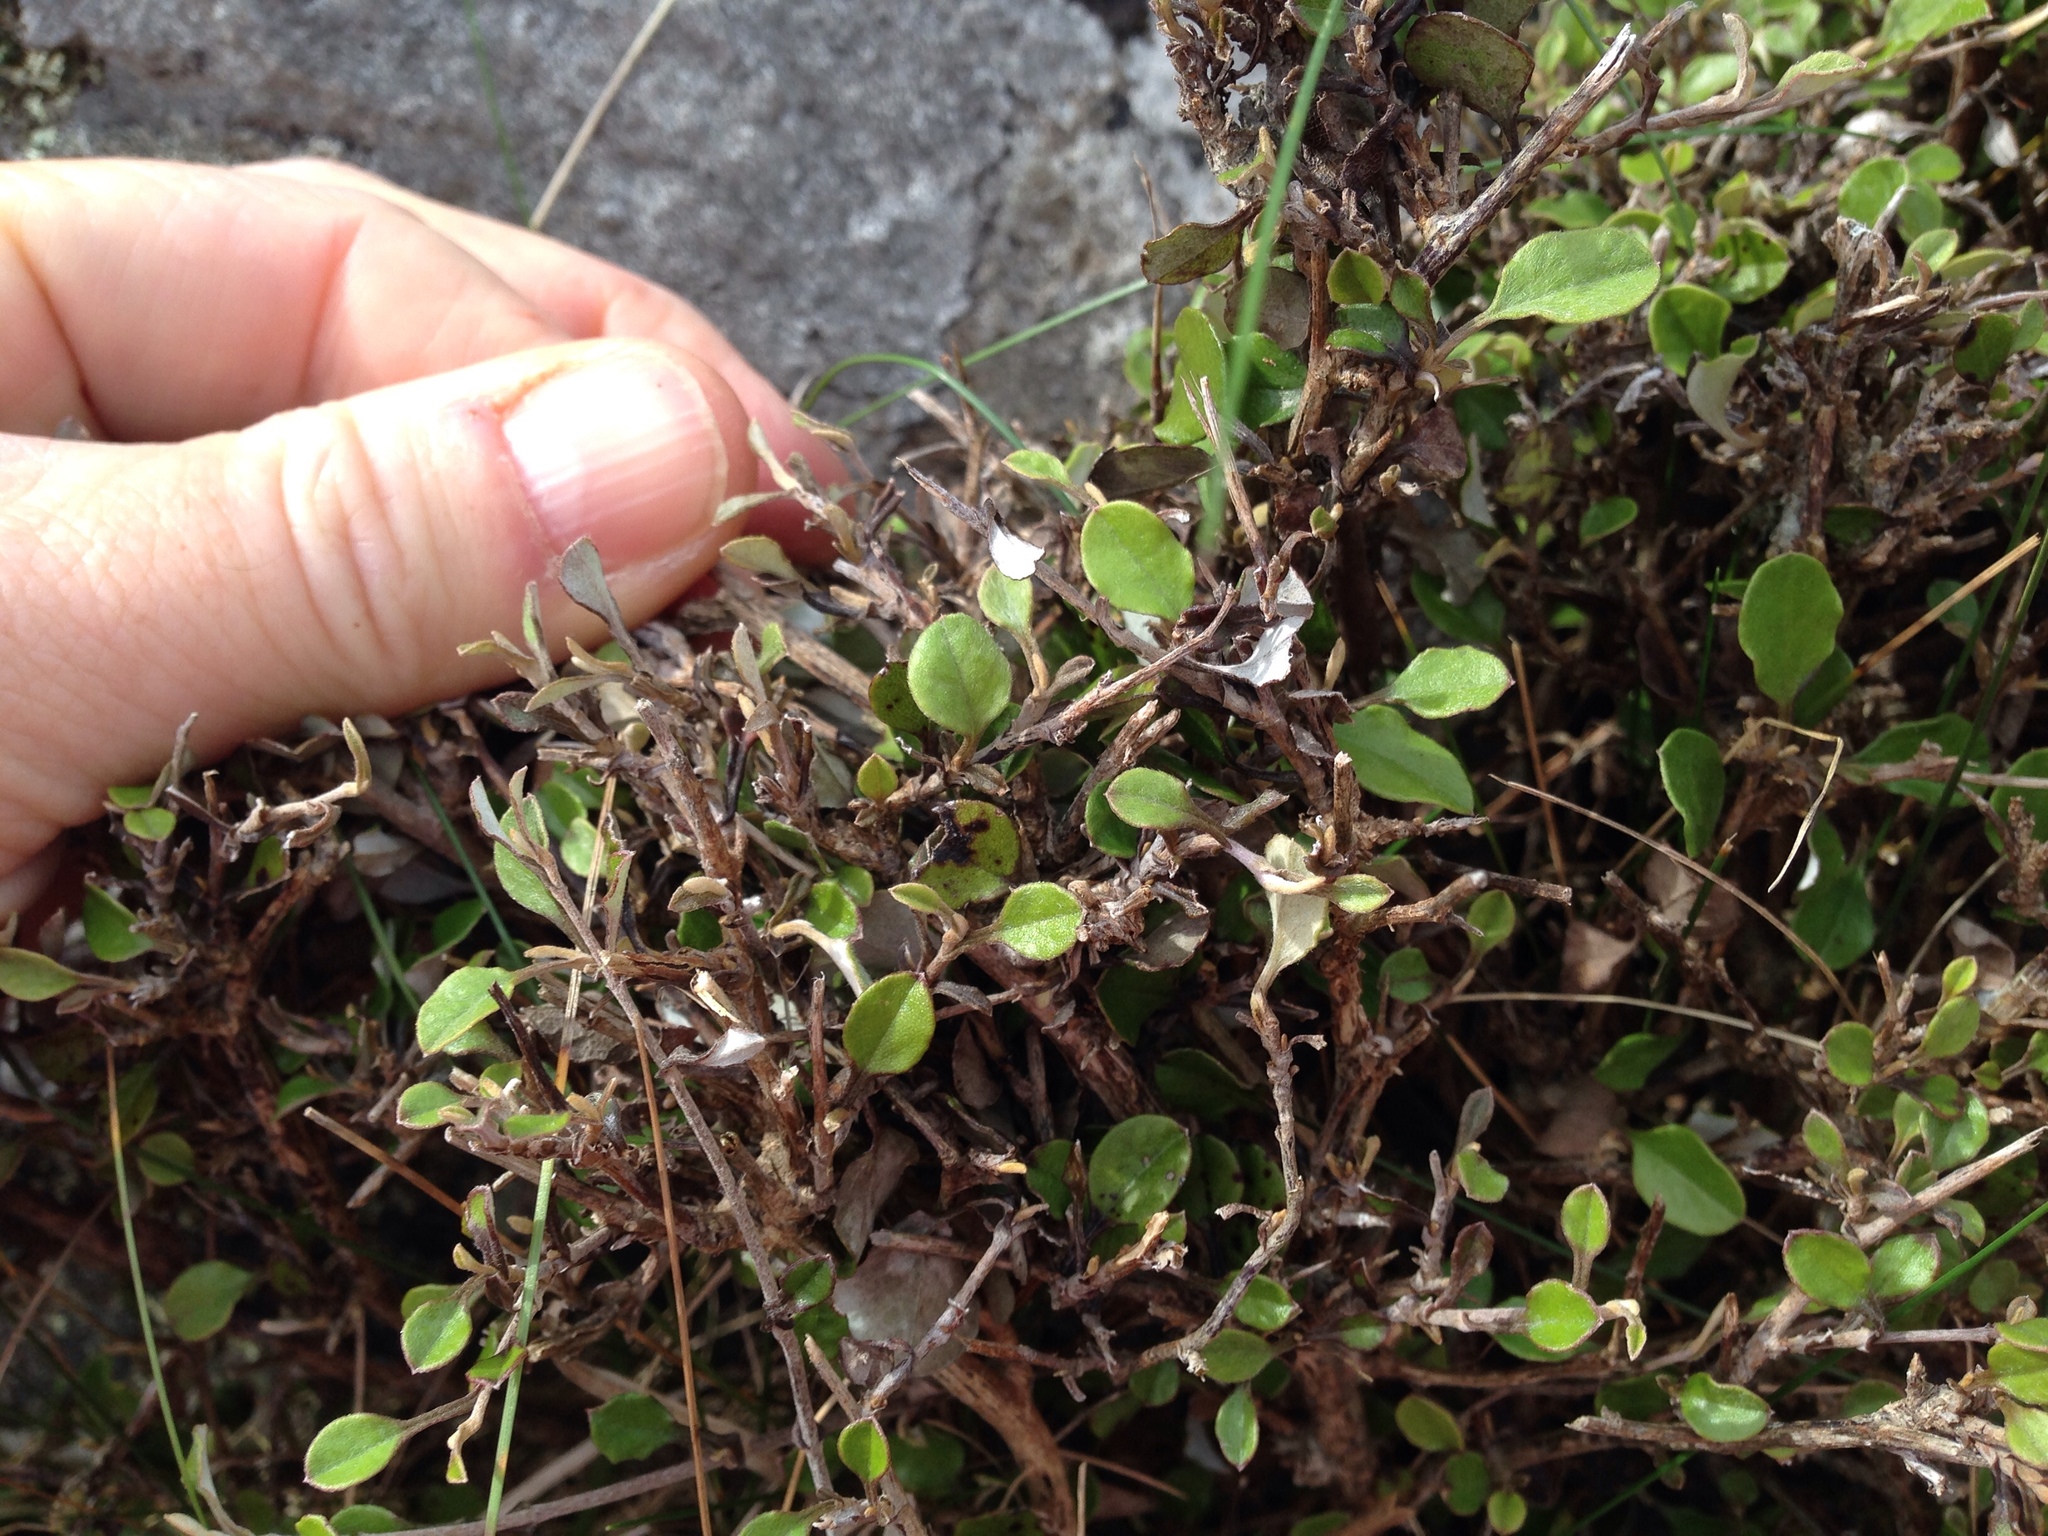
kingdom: Plantae
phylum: Tracheophyta
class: Magnoliopsida
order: Asterales
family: Asteraceae
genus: Ozothamnus
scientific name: Ozothamnus glomeratus
